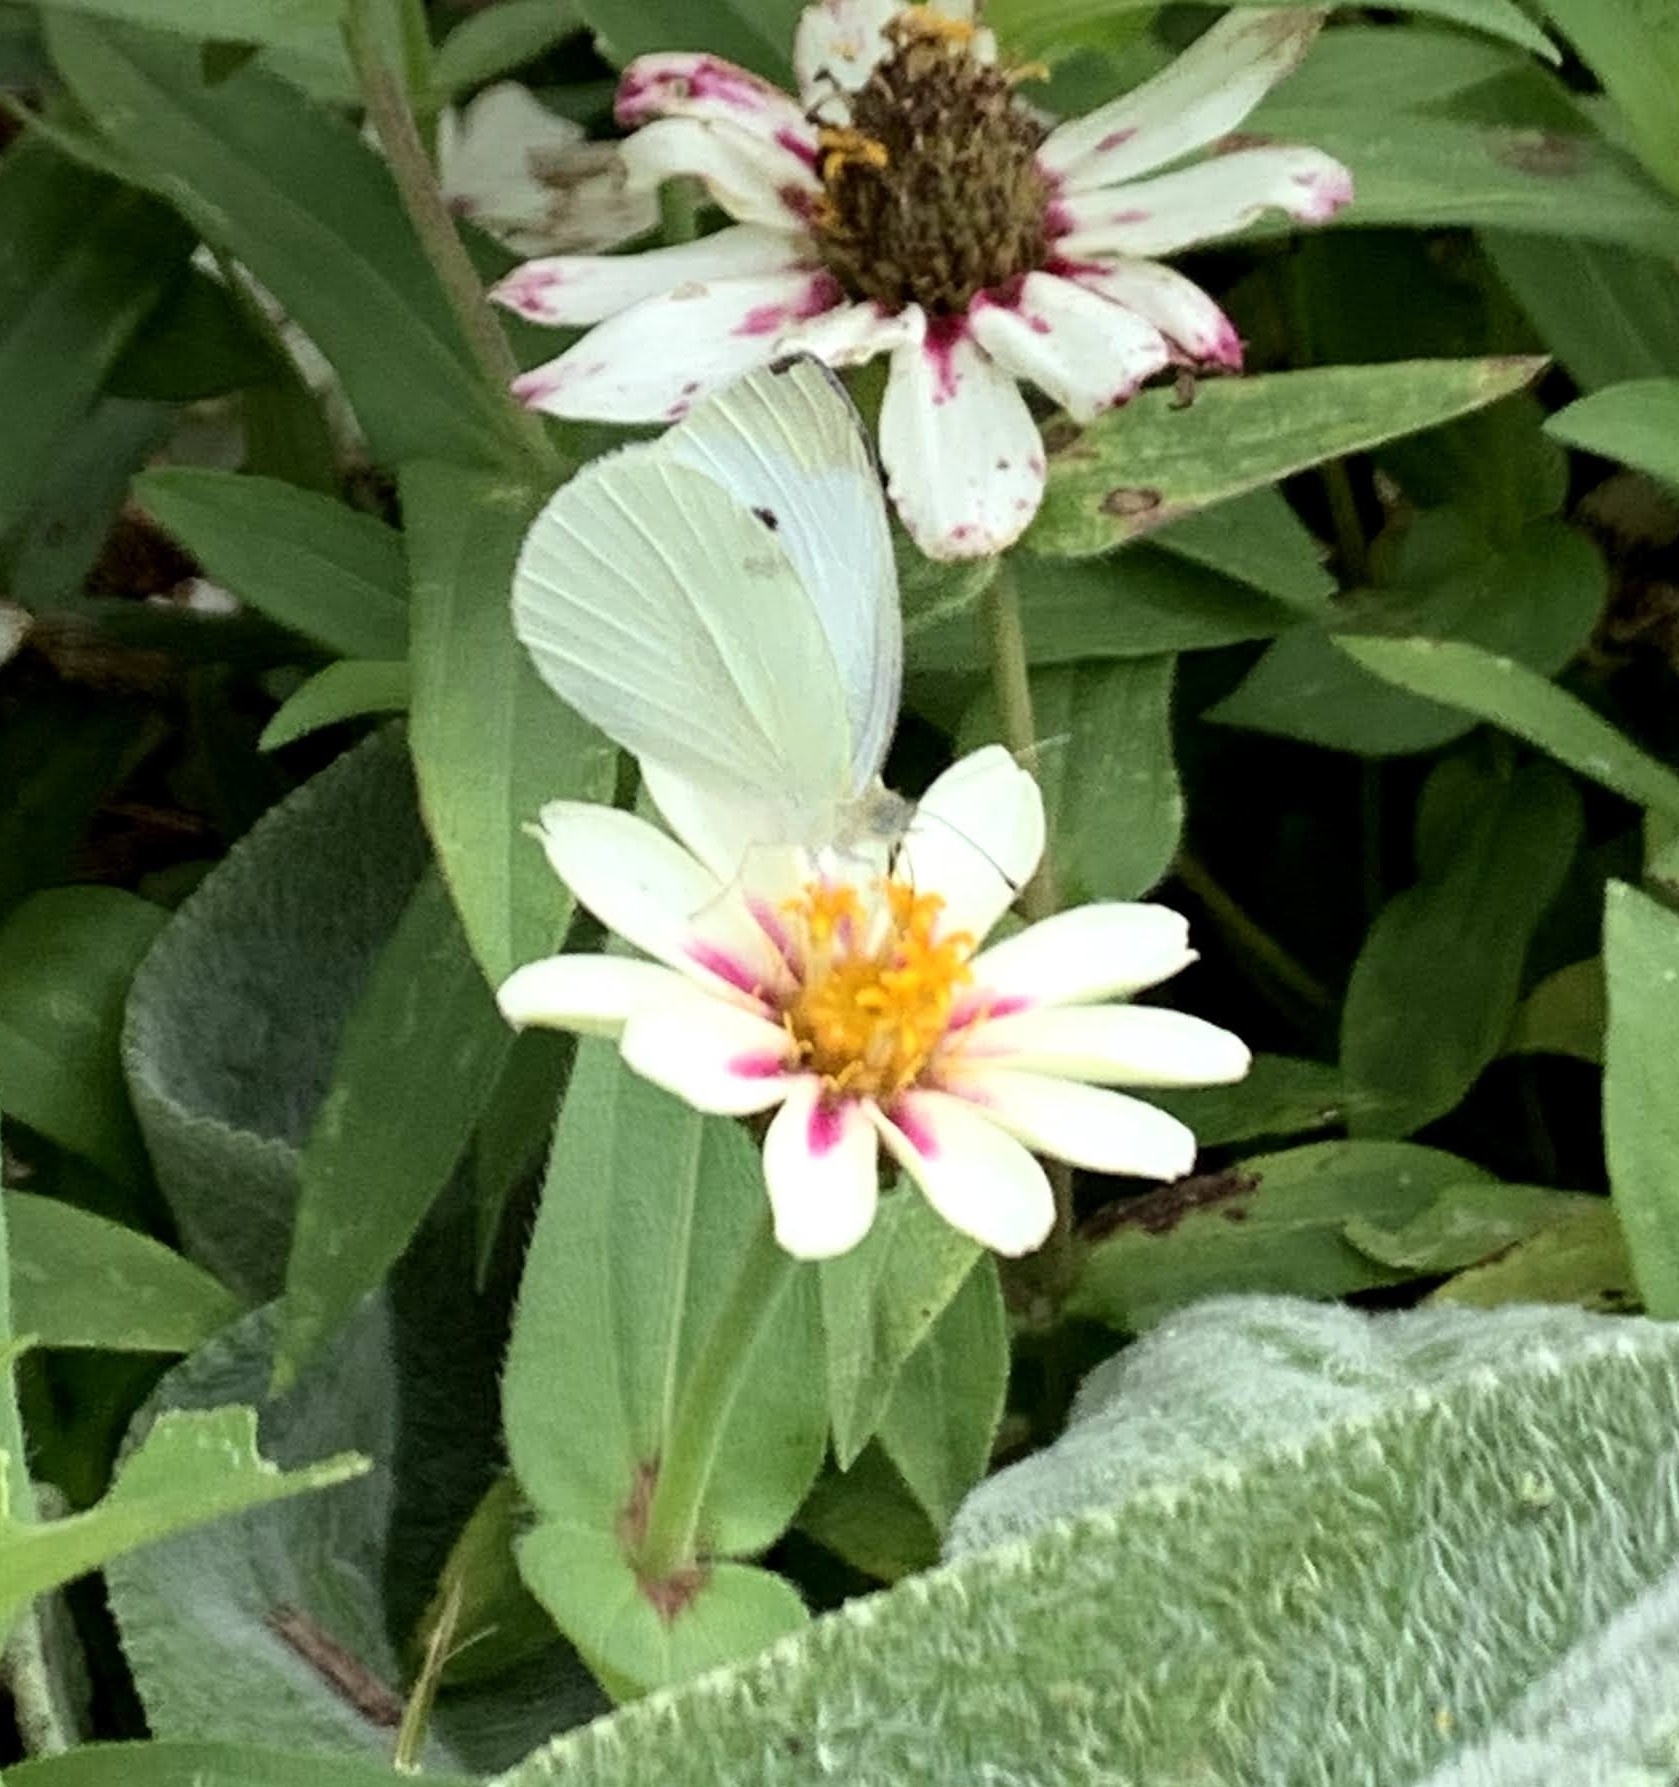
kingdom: Animalia
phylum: Arthropoda
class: Insecta
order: Lepidoptera
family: Pieridae
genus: Pieris
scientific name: Pieris rapae
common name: Small white
